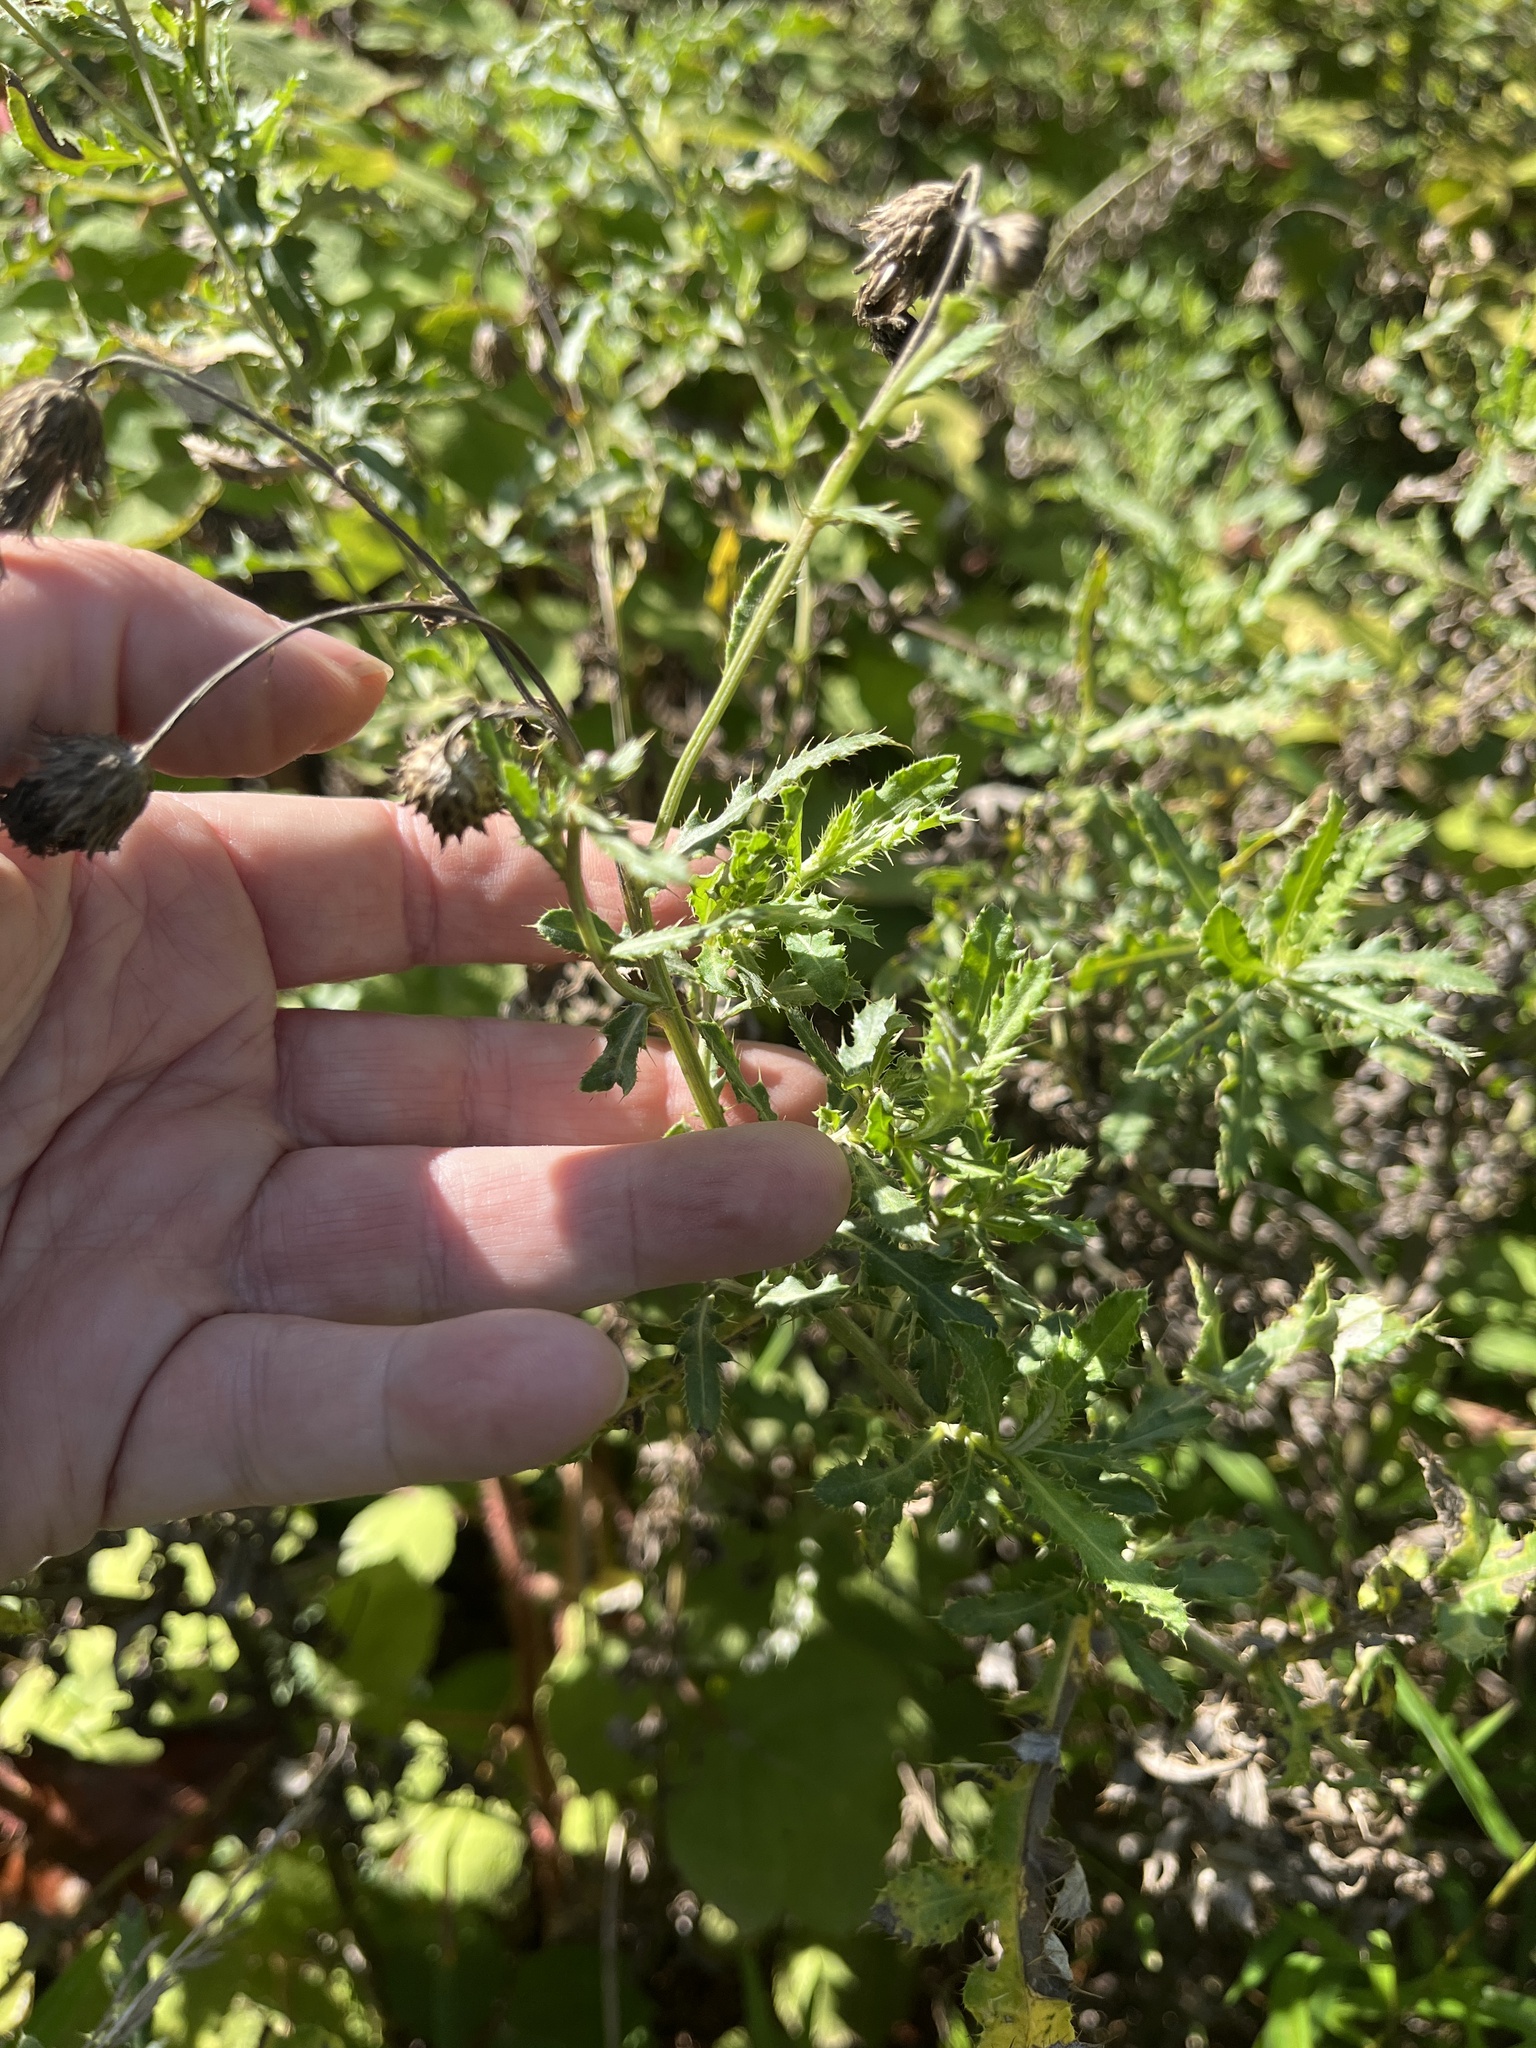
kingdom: Plantae
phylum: Tracheophyta
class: Magnoliopsida
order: Asterales
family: Asteraceae
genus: Cirsium
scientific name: Cirsium arvense
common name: Creeping thistle
